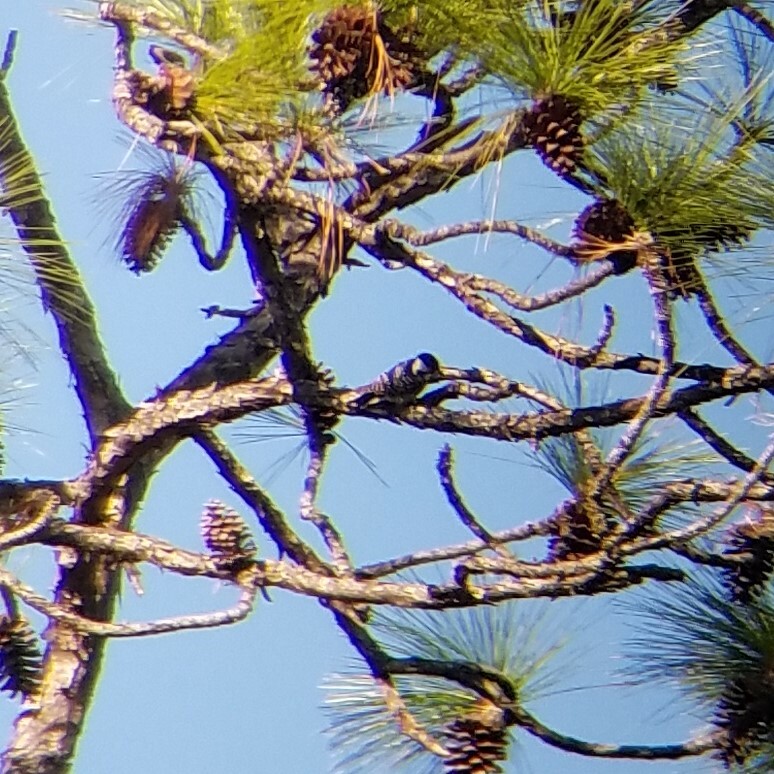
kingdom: Animalia
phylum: Chordata
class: Aves
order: Piciformes
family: Picidae
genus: Leuconotopicus
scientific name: Leuconotopicus borealis
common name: Red-cockaded woodpecker
